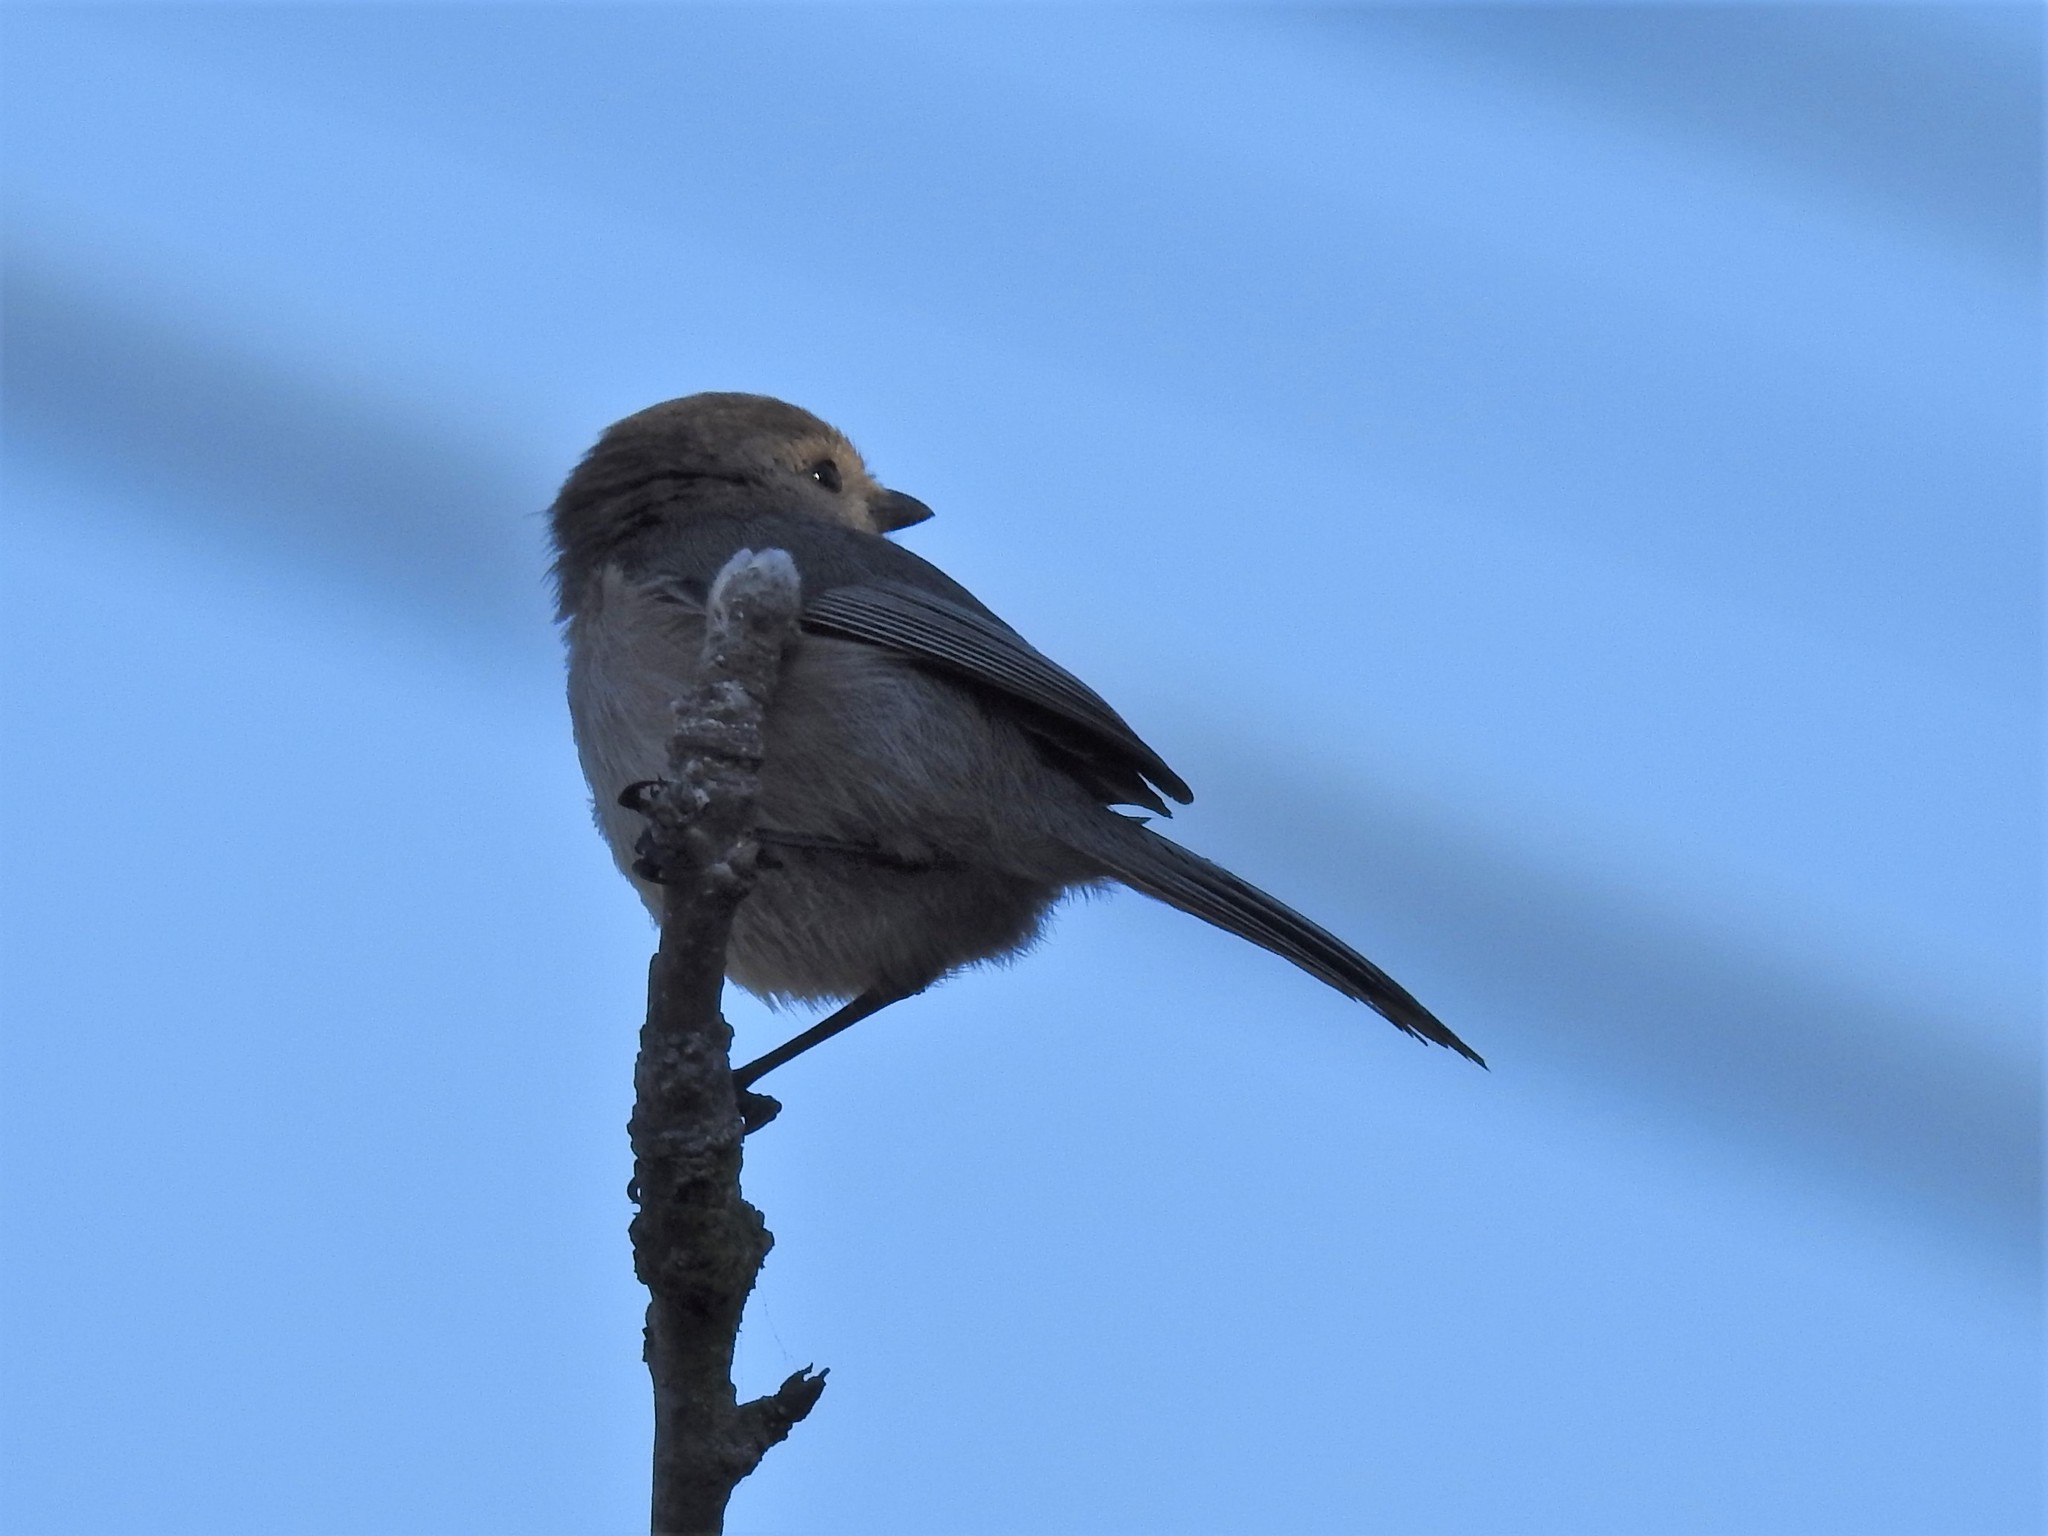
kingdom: Animalia
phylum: Chordata
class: Aves
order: Passeriformes
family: Aegithalidae
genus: Psaltriparus
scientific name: Psaltriparus minimus
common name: American bushtit
